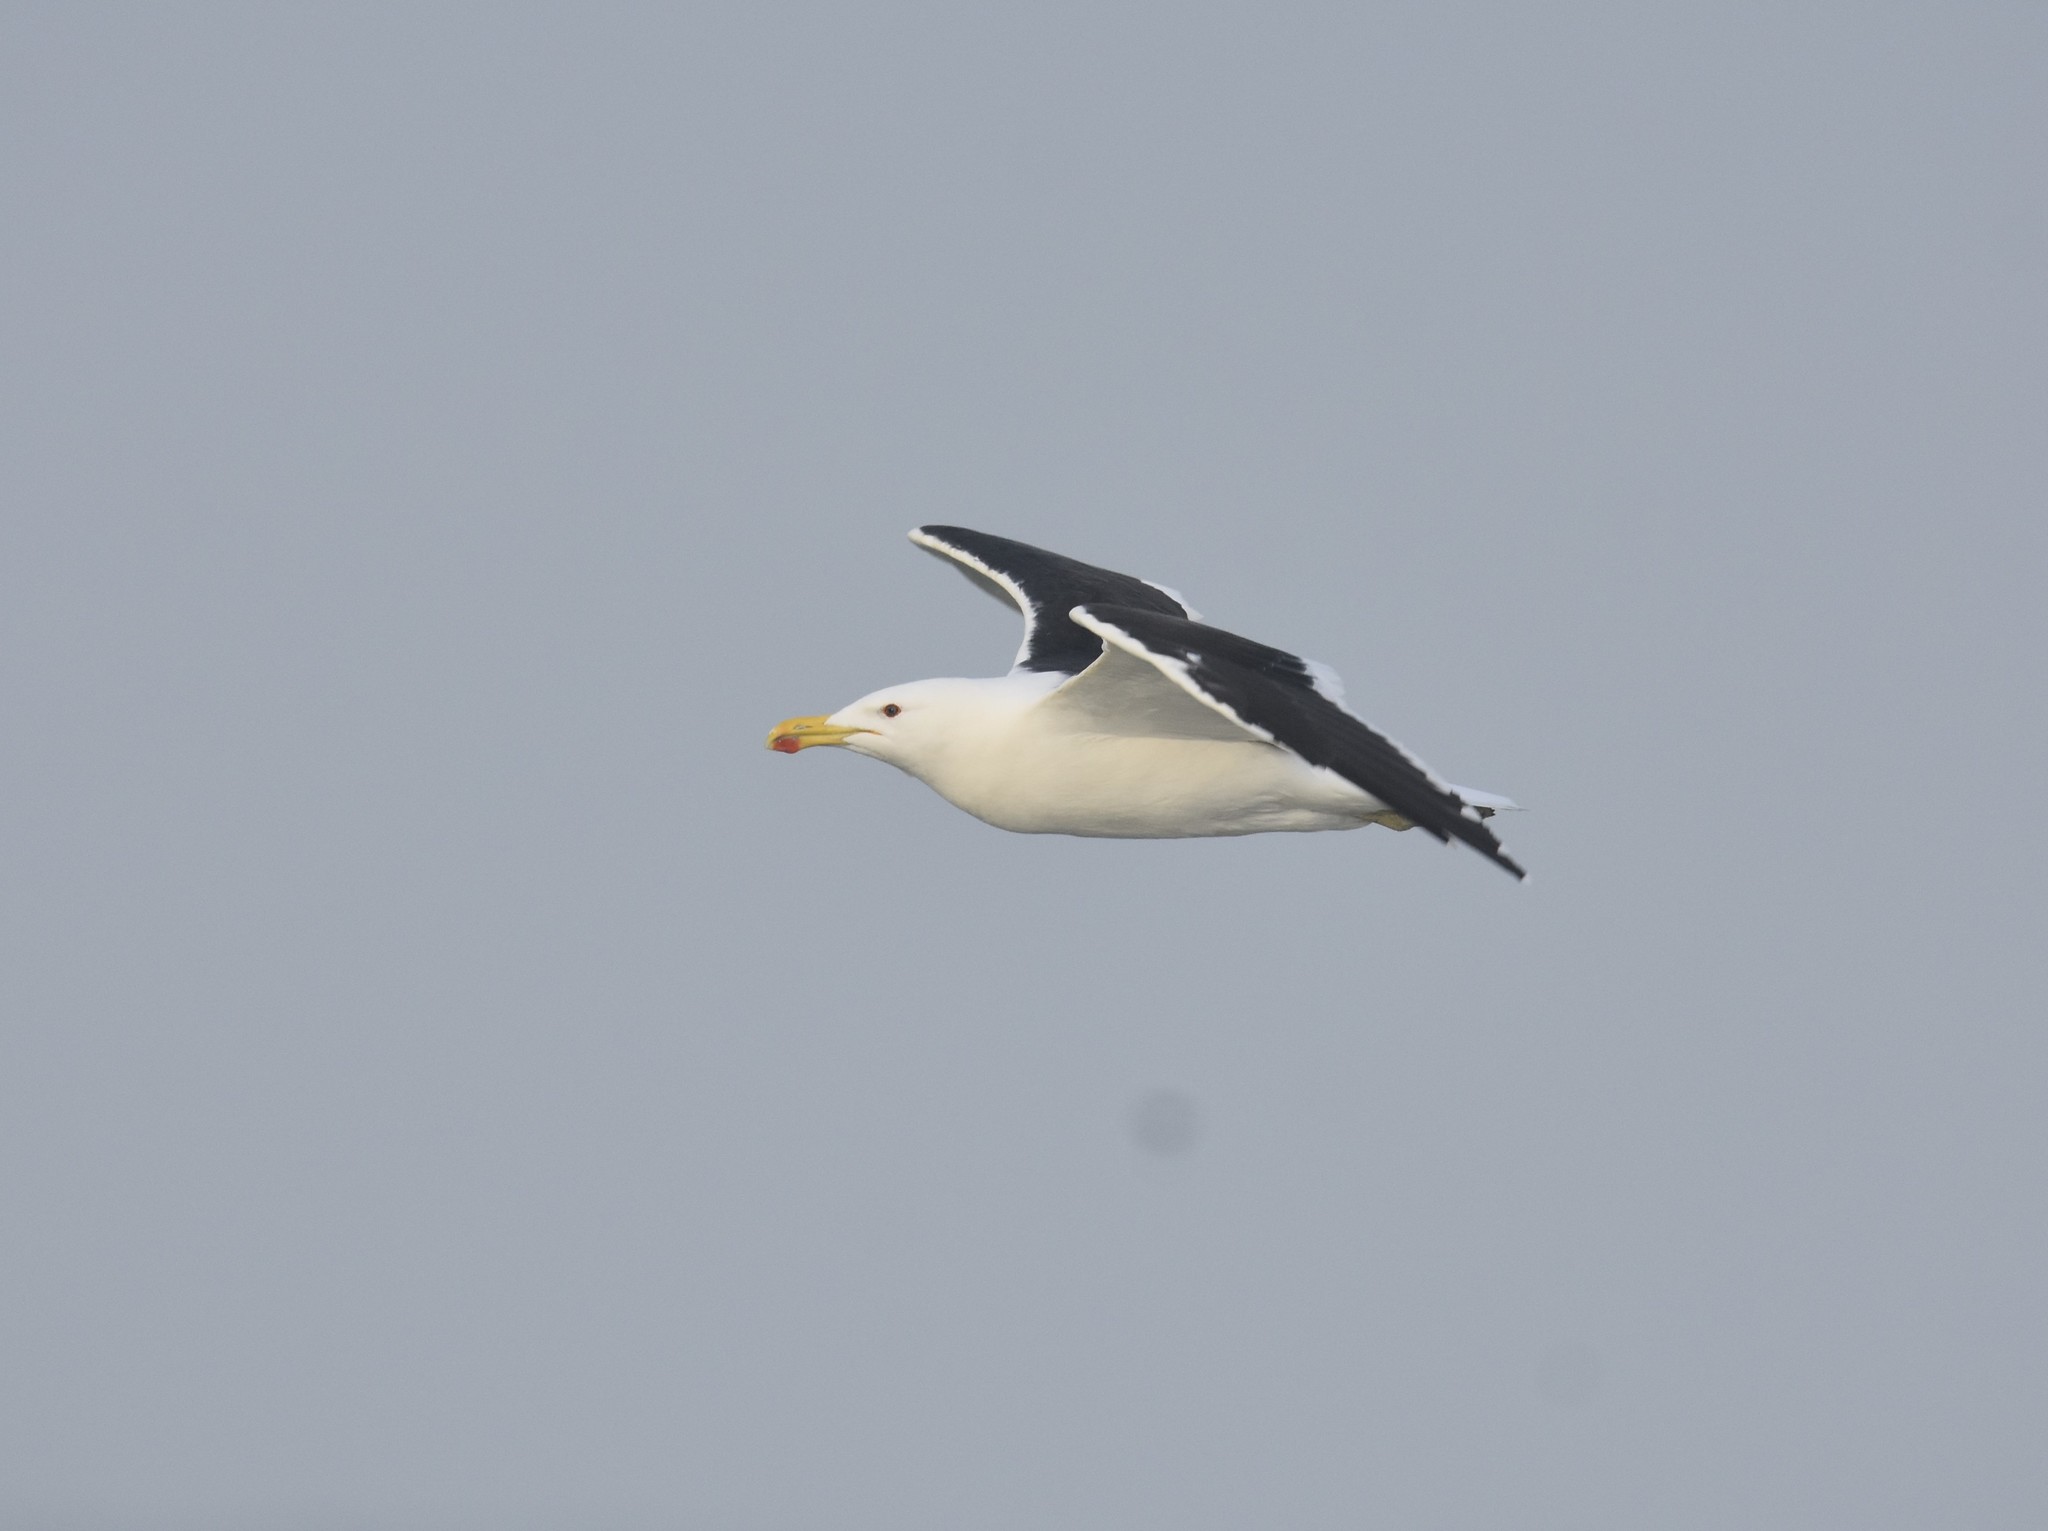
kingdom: Animalia
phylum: Chordata
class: Aves
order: Charadriiformes
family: Laridae
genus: Larus
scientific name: Larus dominicanus
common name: Kelp gull
